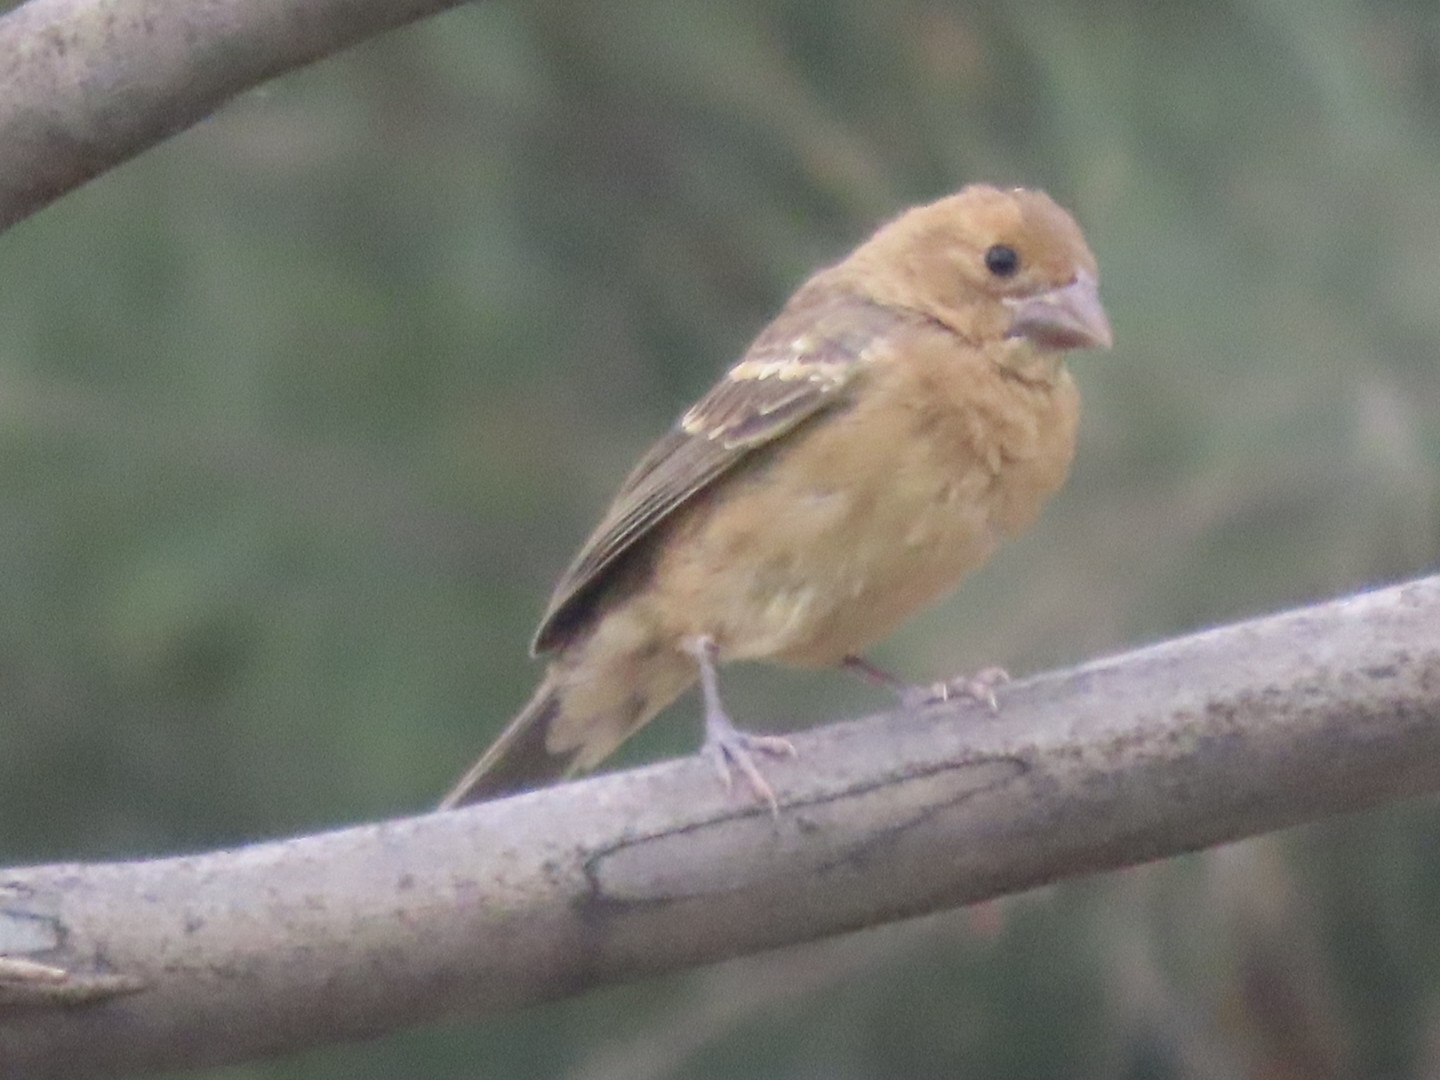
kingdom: Animalia
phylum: Chordata
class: Aves
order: Passeriformes
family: Cardinalidae
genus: Passerina
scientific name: Passerina caerulea
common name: Blue grosbeak
